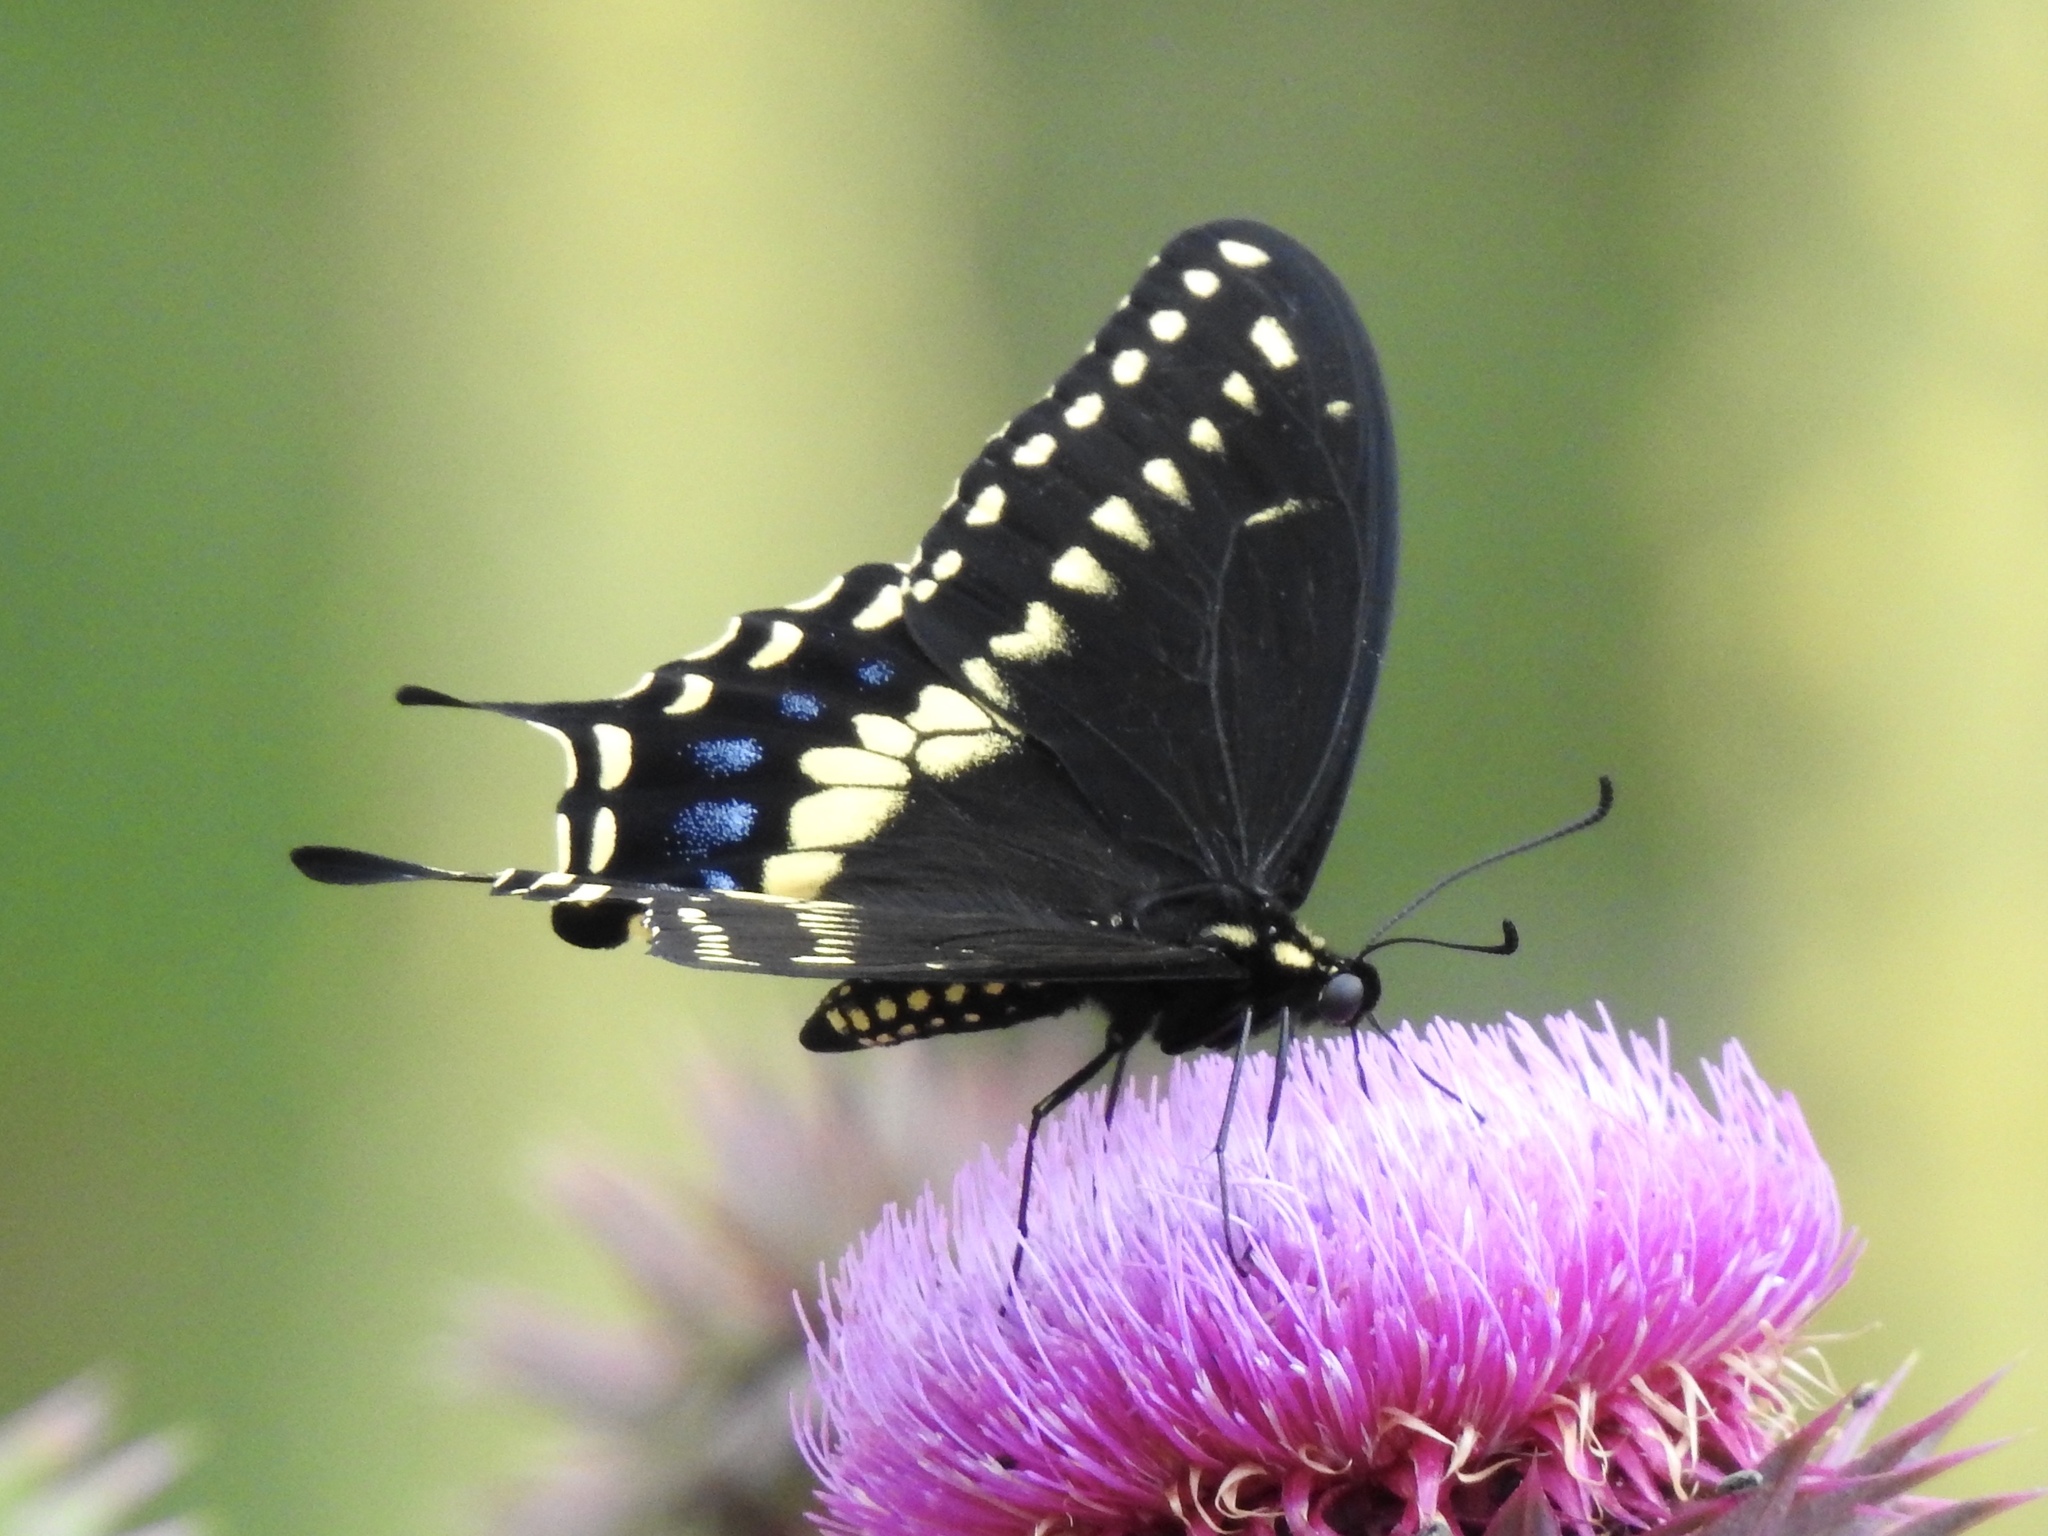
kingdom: Animalia
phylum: Arthropoda
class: Insecta
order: Lepidoptera
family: Papilionidae
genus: Papilio
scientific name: Papilio polyxenes
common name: Black swallowtail
